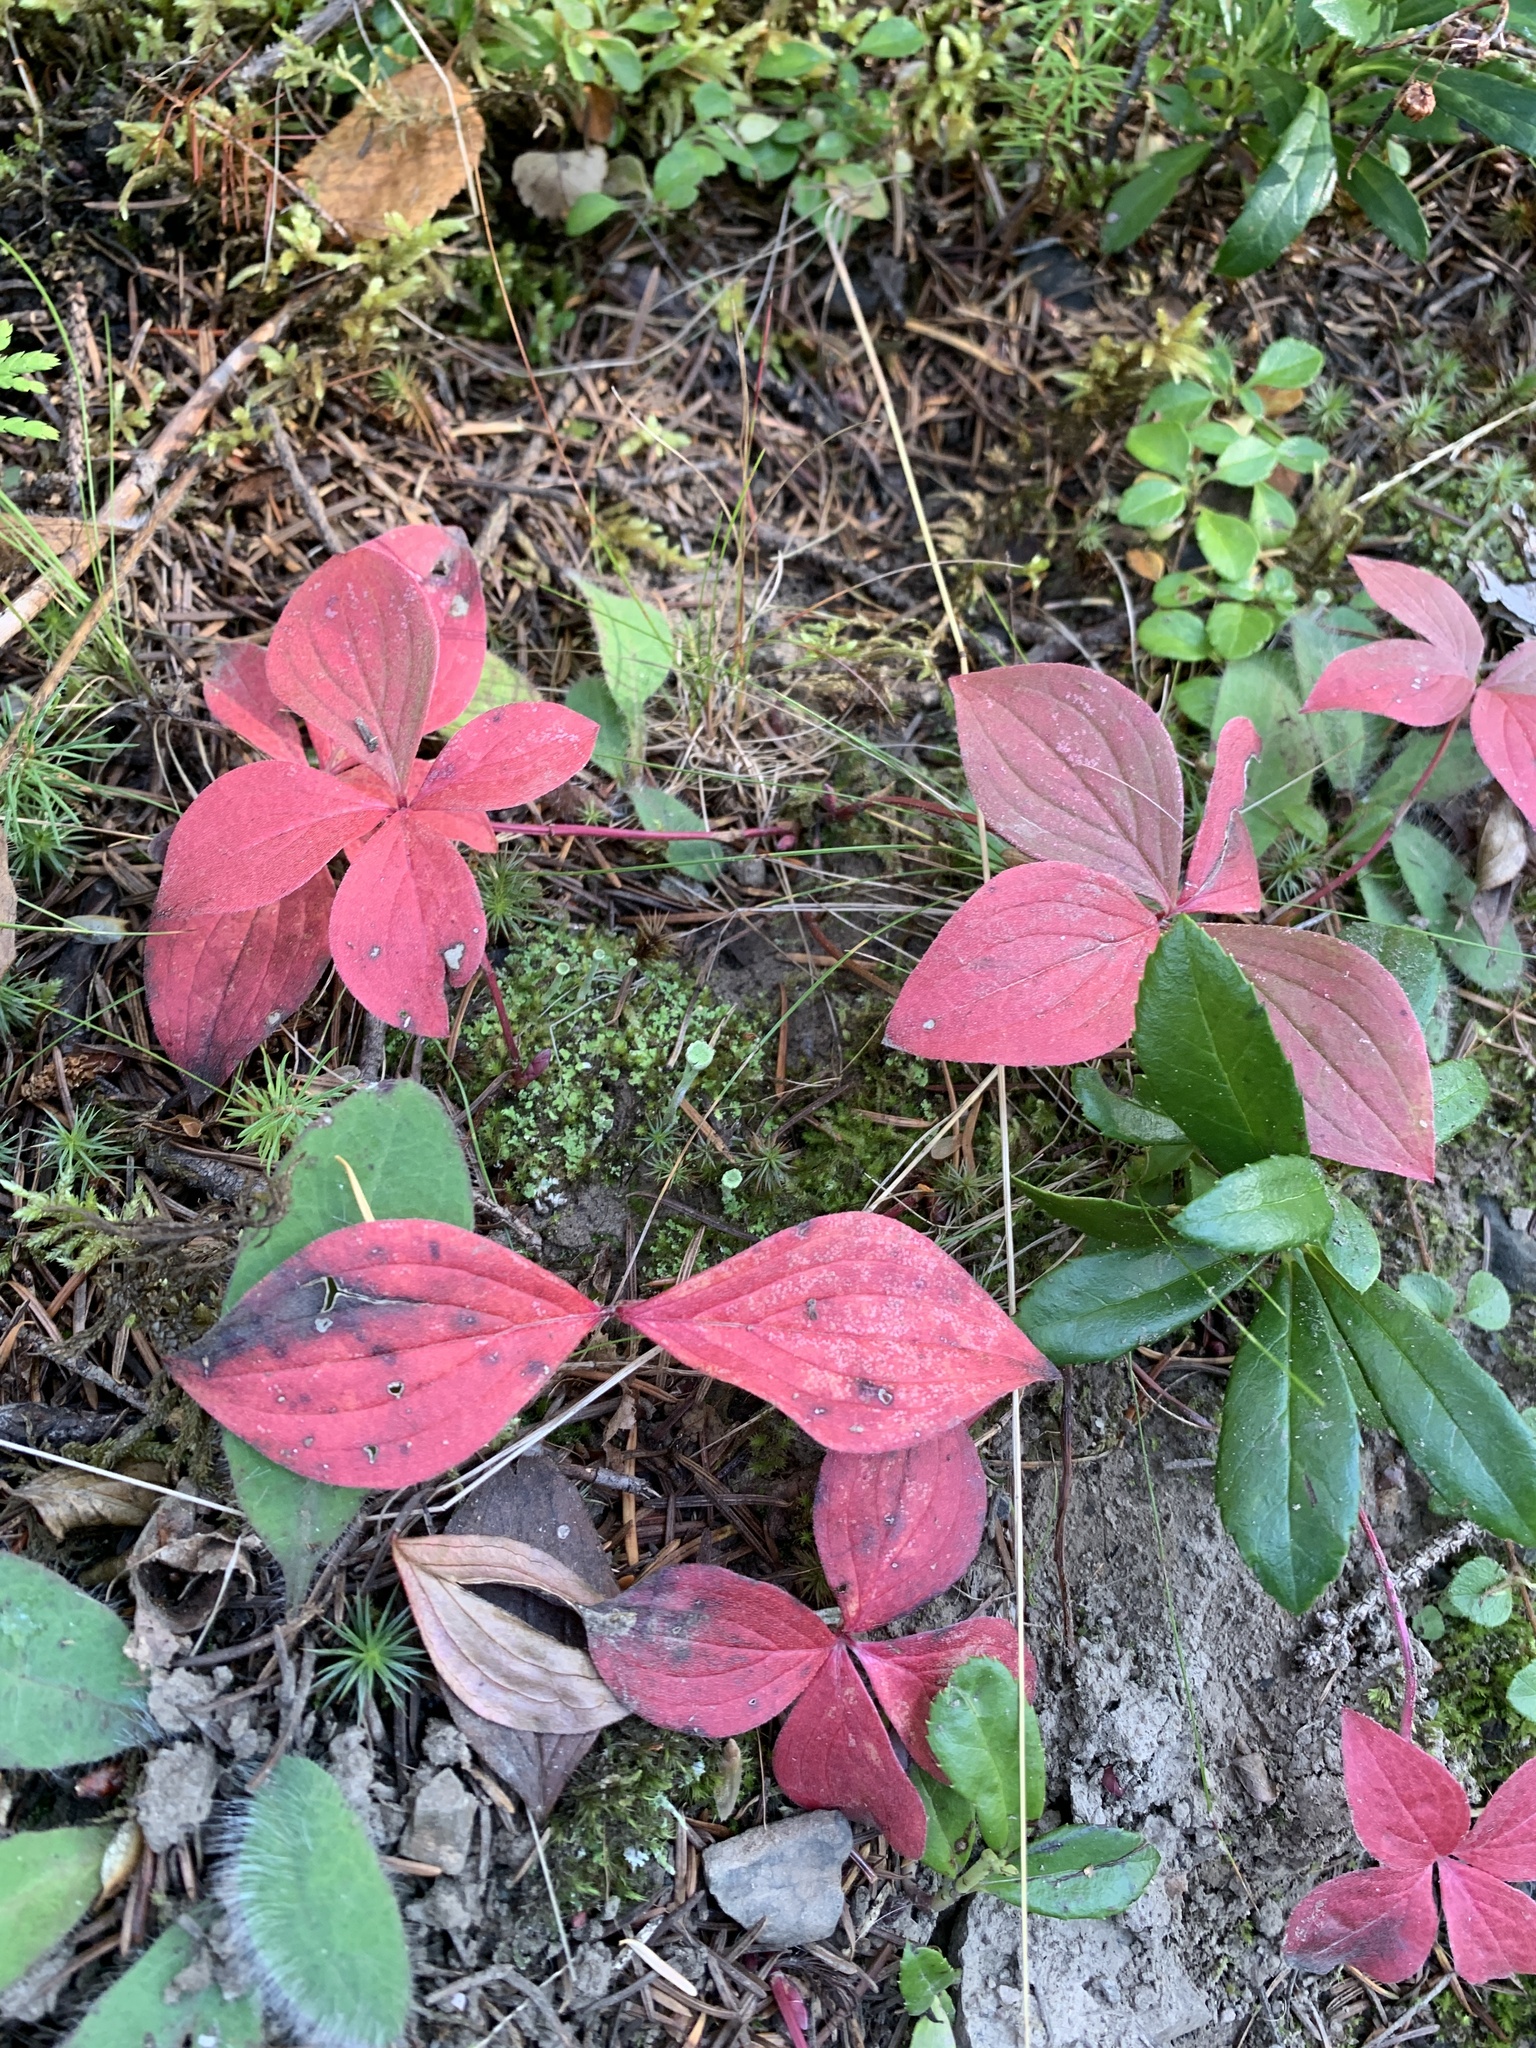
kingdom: Plantae
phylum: Tracheophyta
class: Magnoliopsida
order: Cornales
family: Cornaceae
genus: Cornus
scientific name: Cornus canadensis
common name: Creeping dogwood
